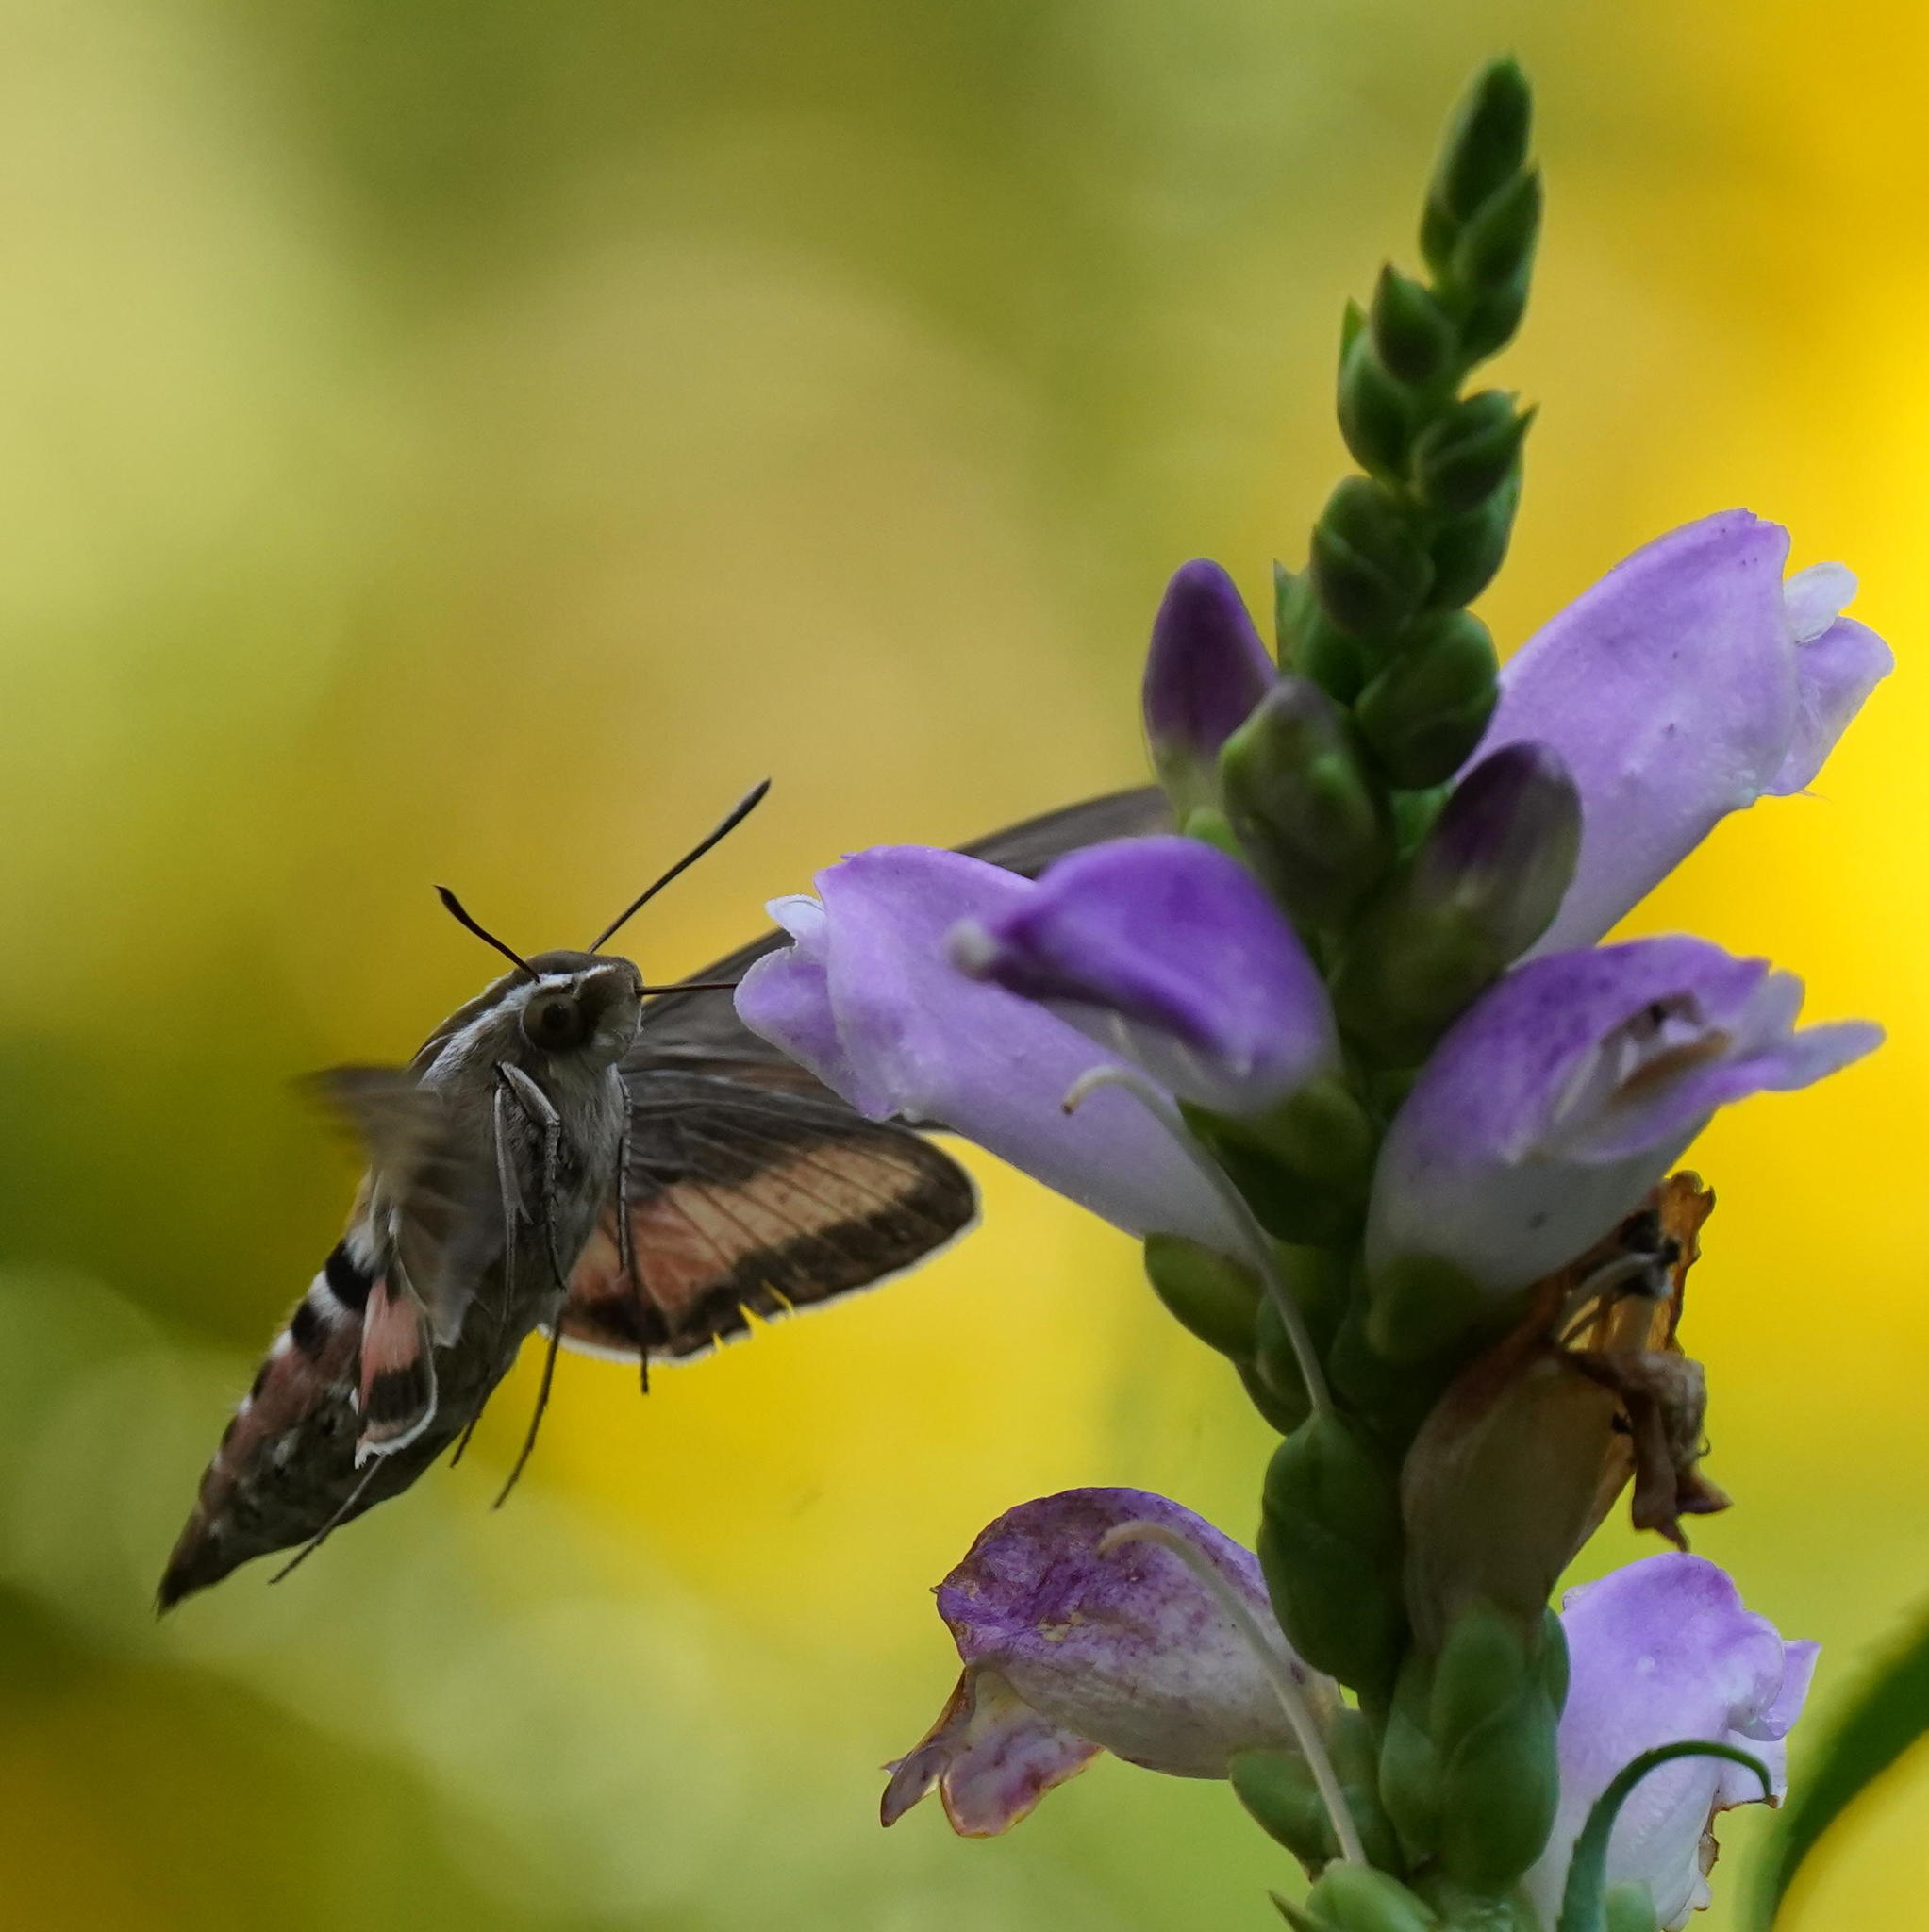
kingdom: Animalia
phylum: Arthropoda
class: Insecta
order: Lepidoptera
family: Sphingidae
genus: Hyles
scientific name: Hyles lineata
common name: White-lined sphinx
